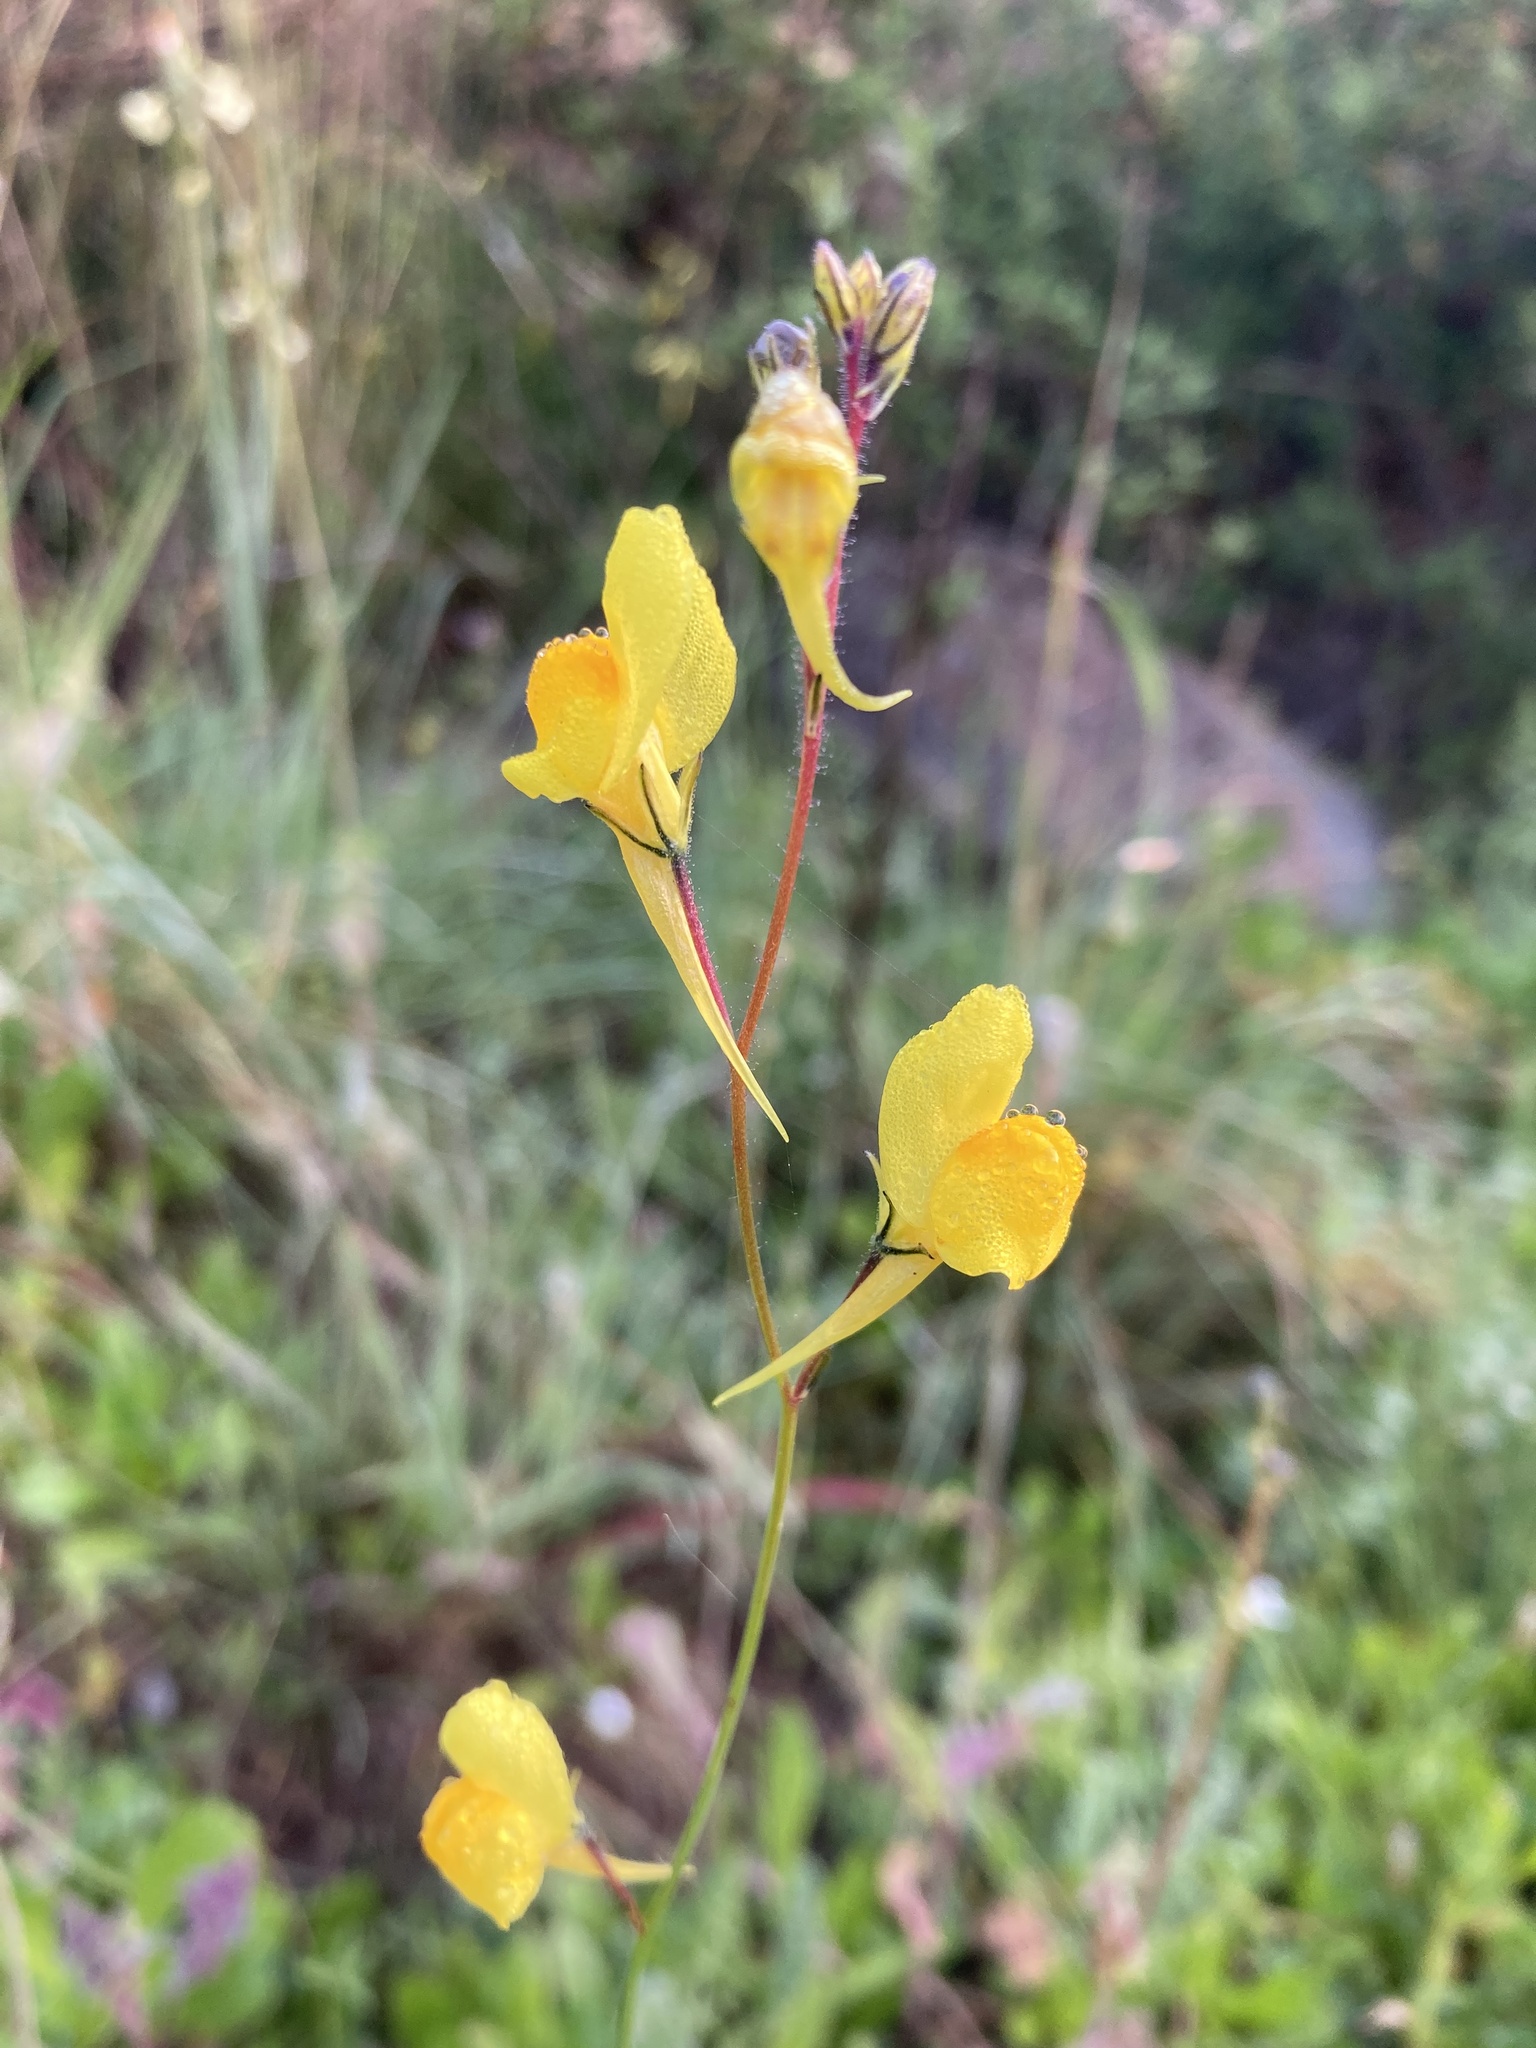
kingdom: Plantae
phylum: Tracheophyta
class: Magnoliopsida
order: Lamiales
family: Plantaginaceae
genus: Linaria
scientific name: Linaria spartea
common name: Ballast toadflax
